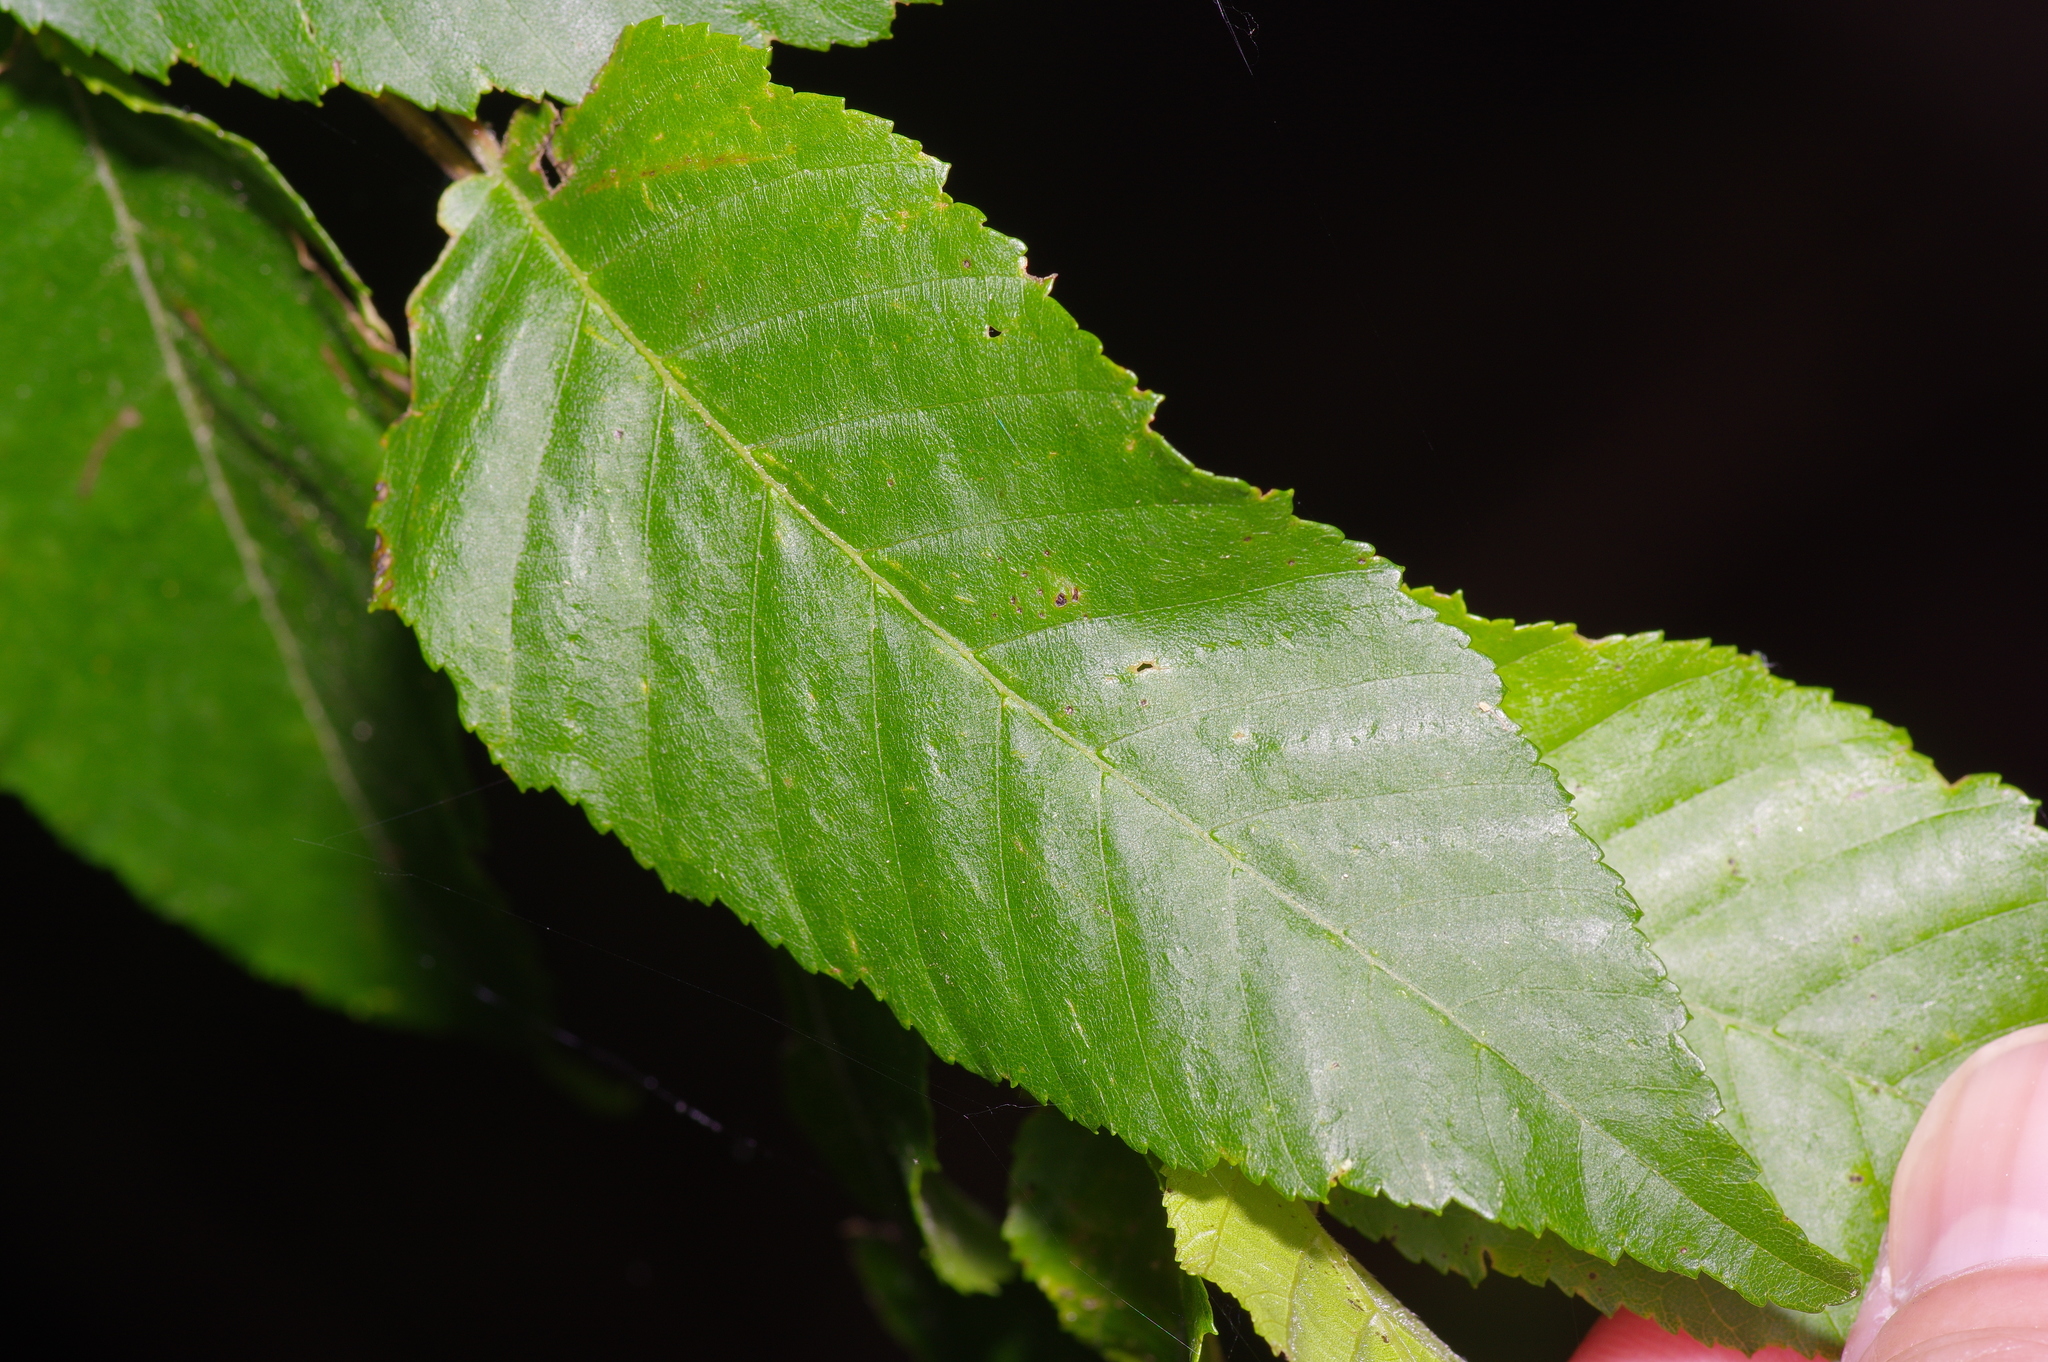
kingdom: Plantae
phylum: Tracheophyta
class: Magnoliopsida
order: Fagales
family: Betulaceae
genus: Carpinus
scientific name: Carpinus caroliniana
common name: American hornbeam
